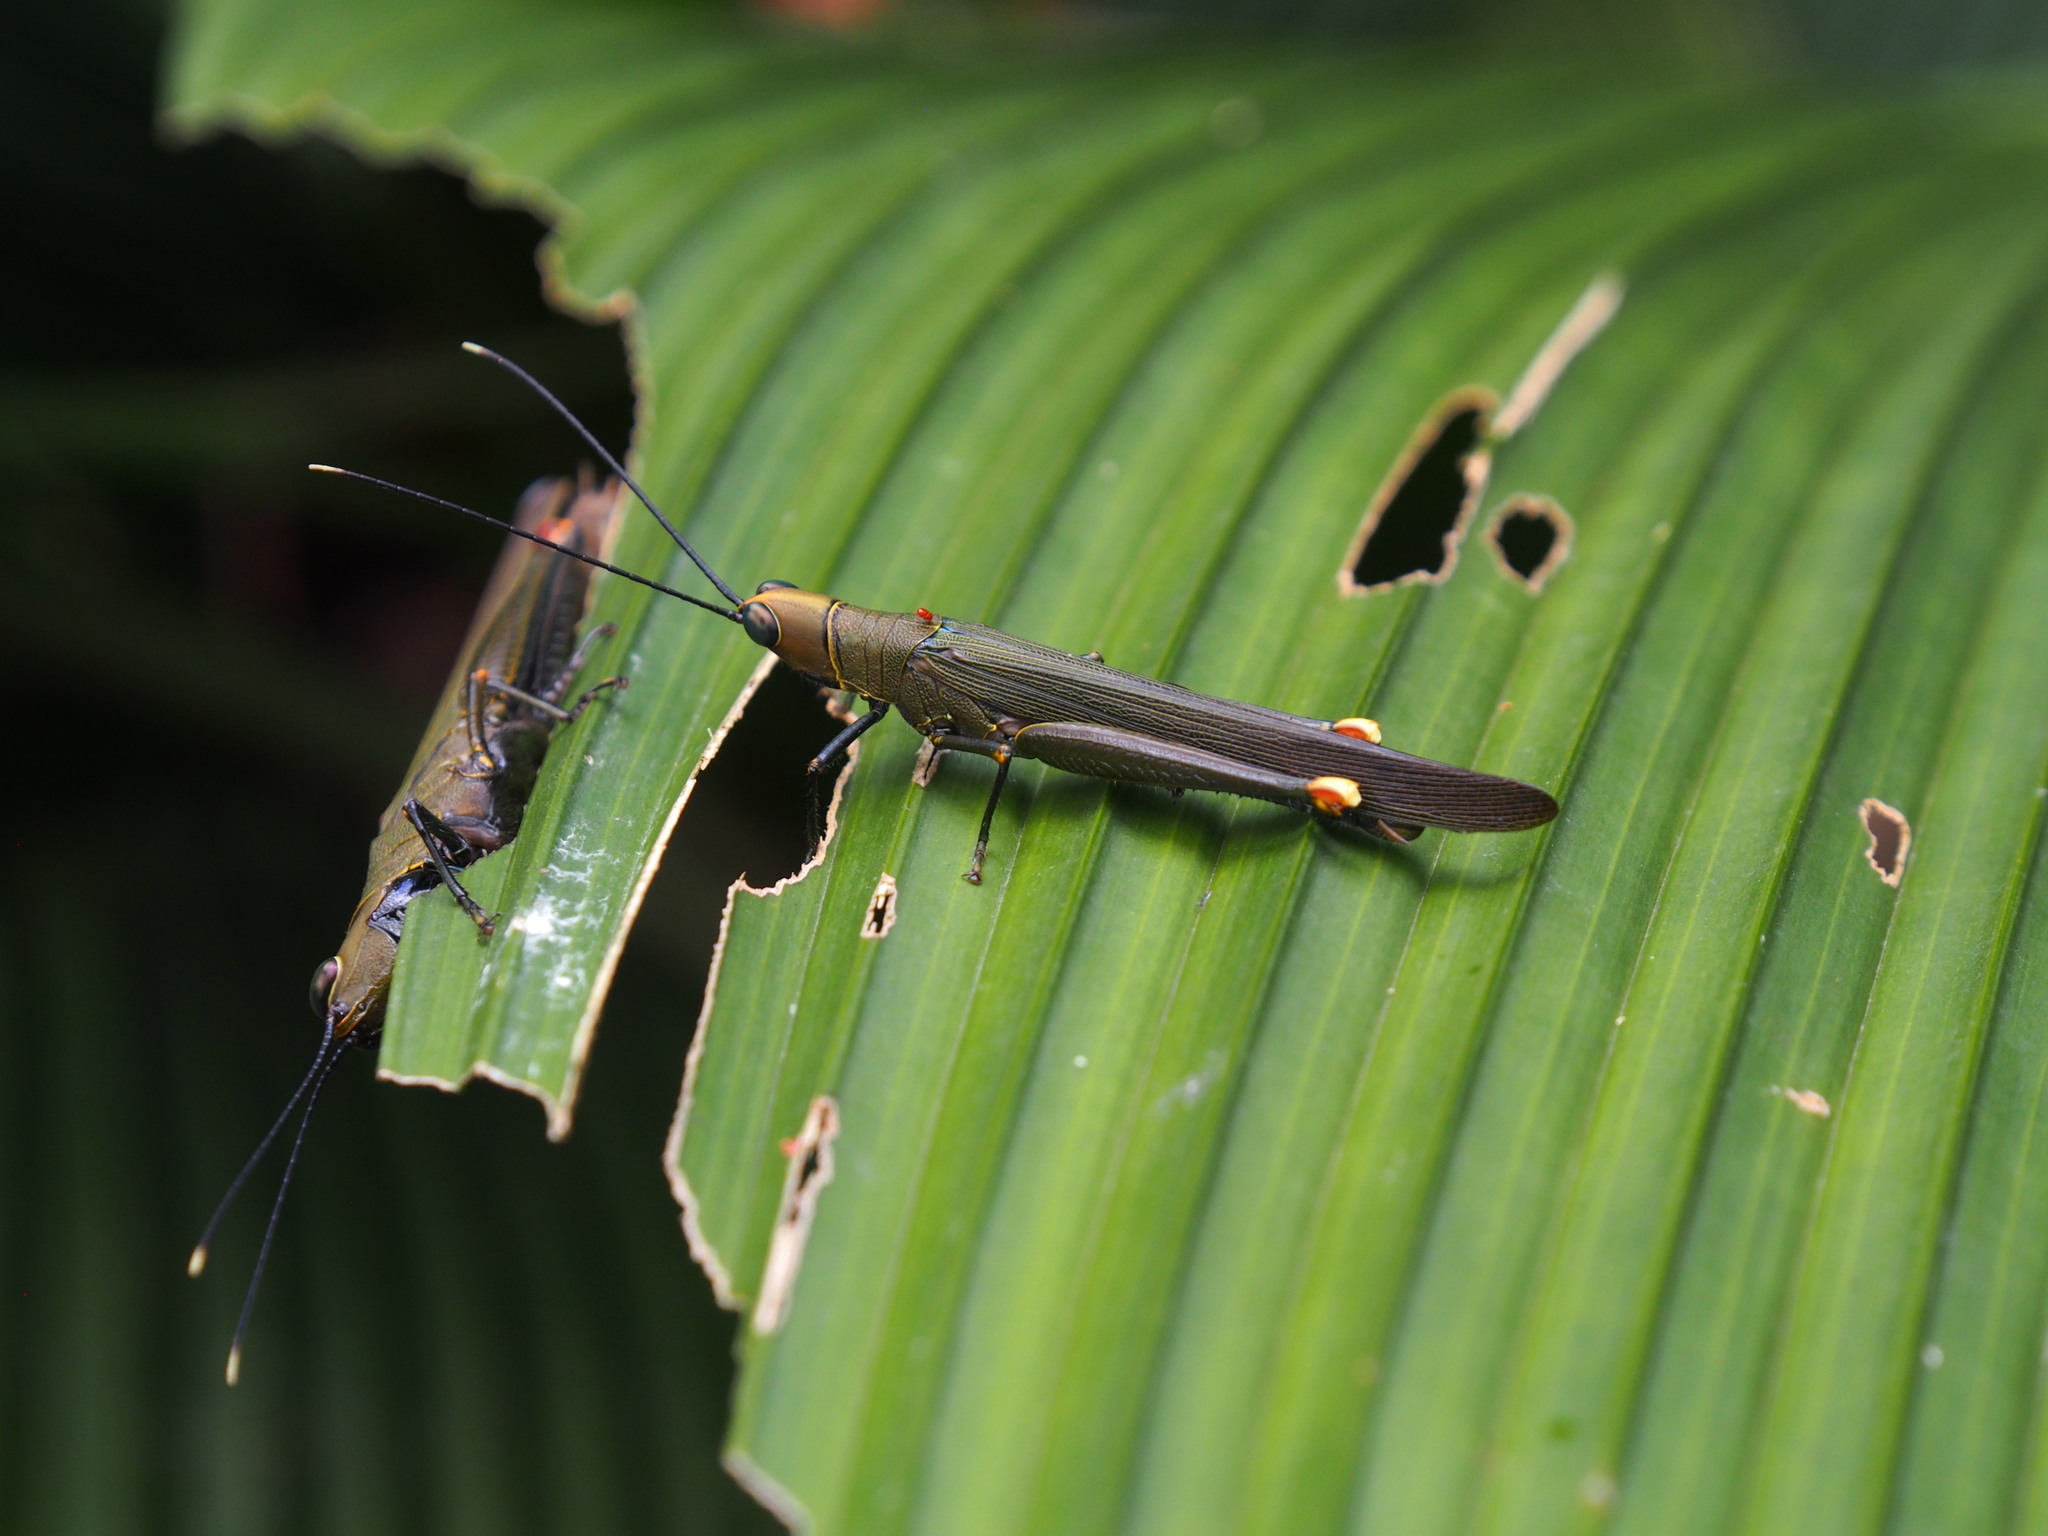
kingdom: Animalia
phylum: Arthropoda
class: Insecta
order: Orthoptera
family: Acrididae
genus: Copiocera
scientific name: Copiocera specularis
